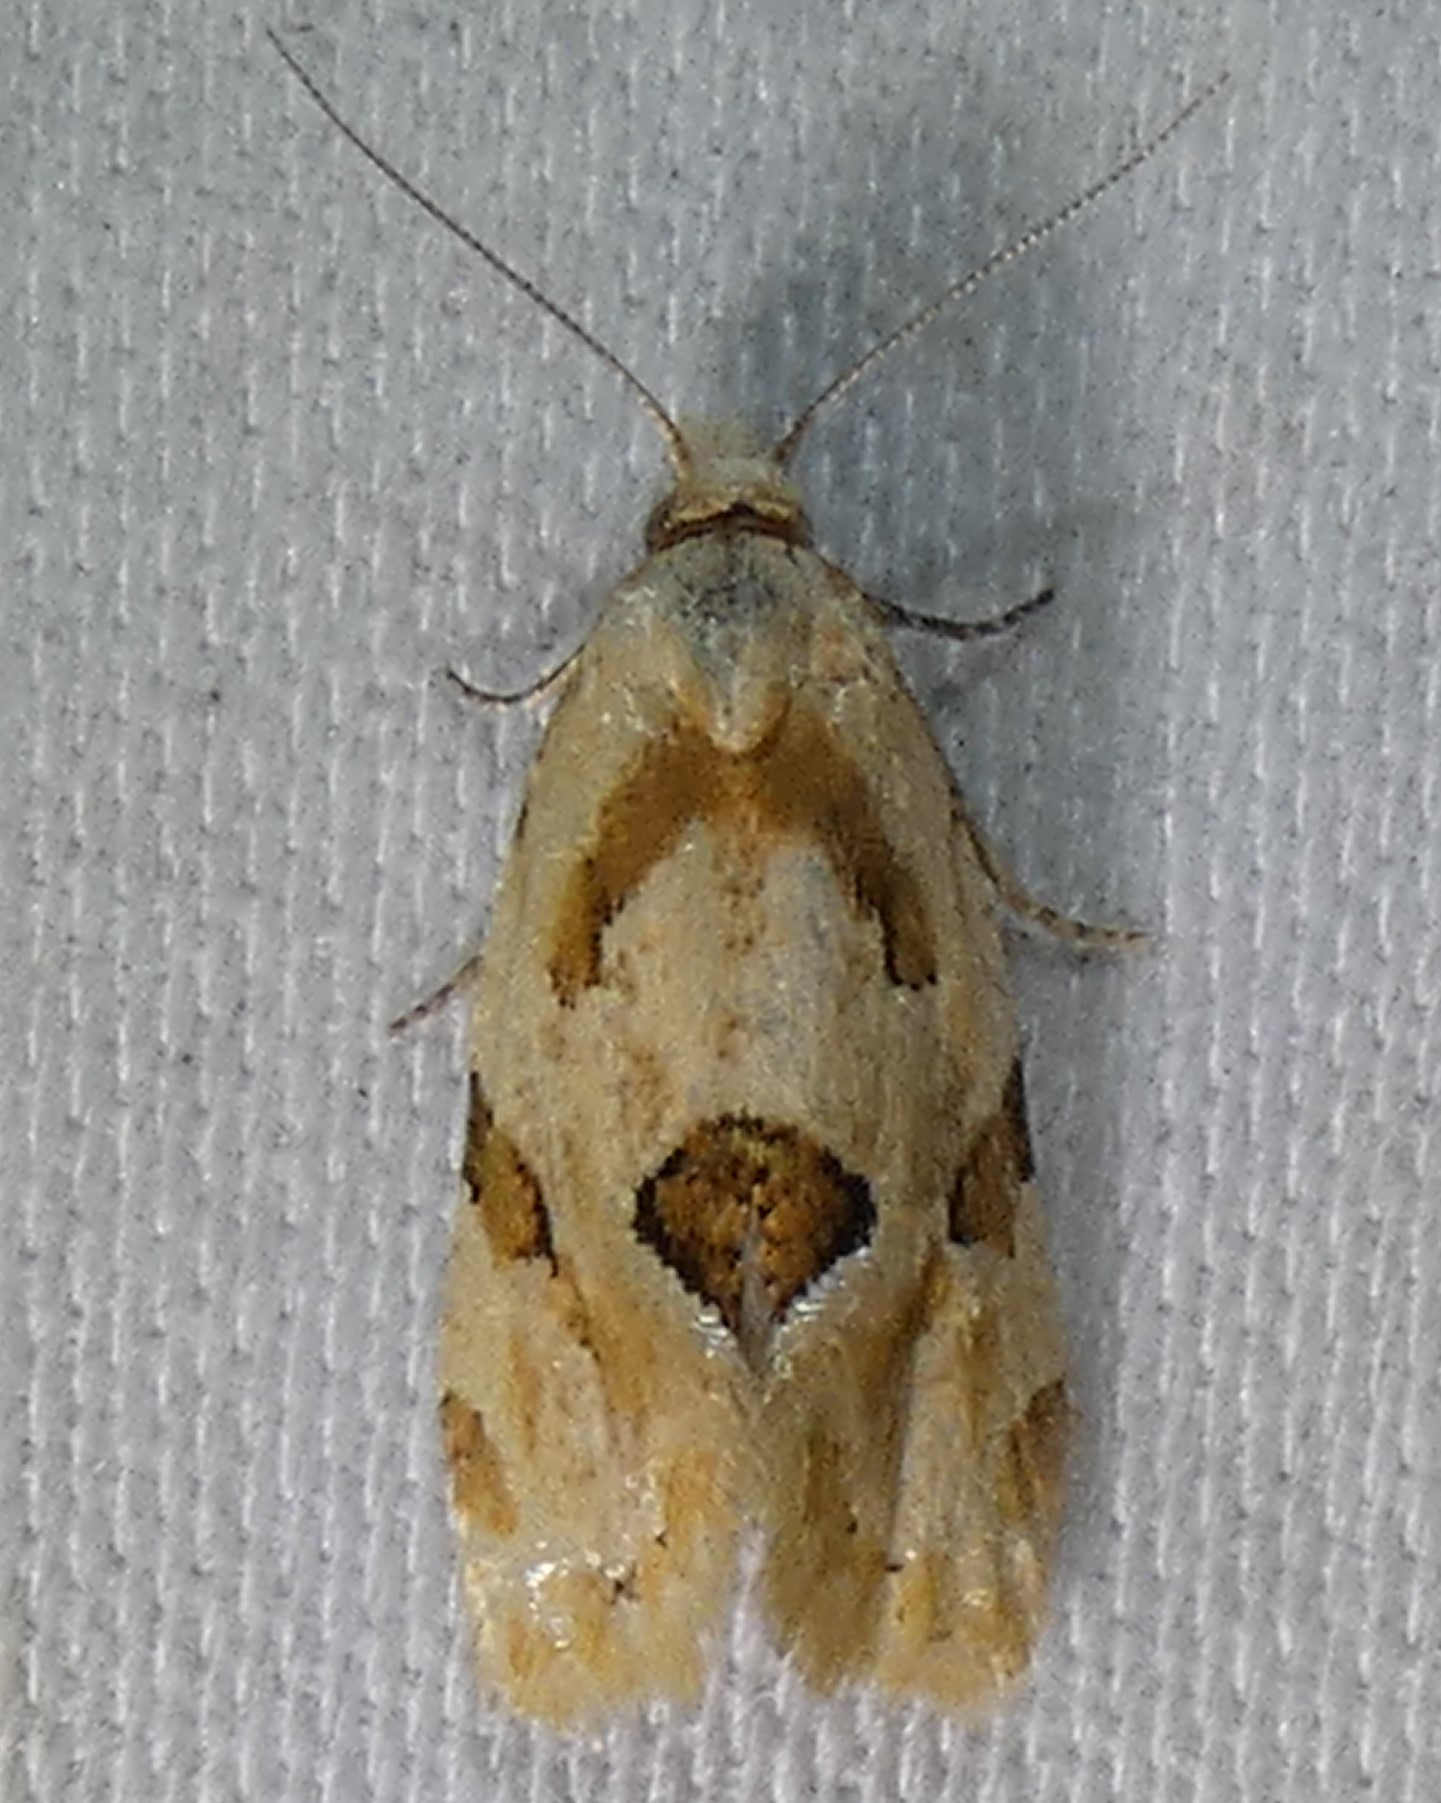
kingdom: Animalia
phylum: Arthropoda
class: Insecta
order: Lepidoptera
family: Tortricidae
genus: Aethes
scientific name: Aethes angulatana
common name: Angular aethes moth
